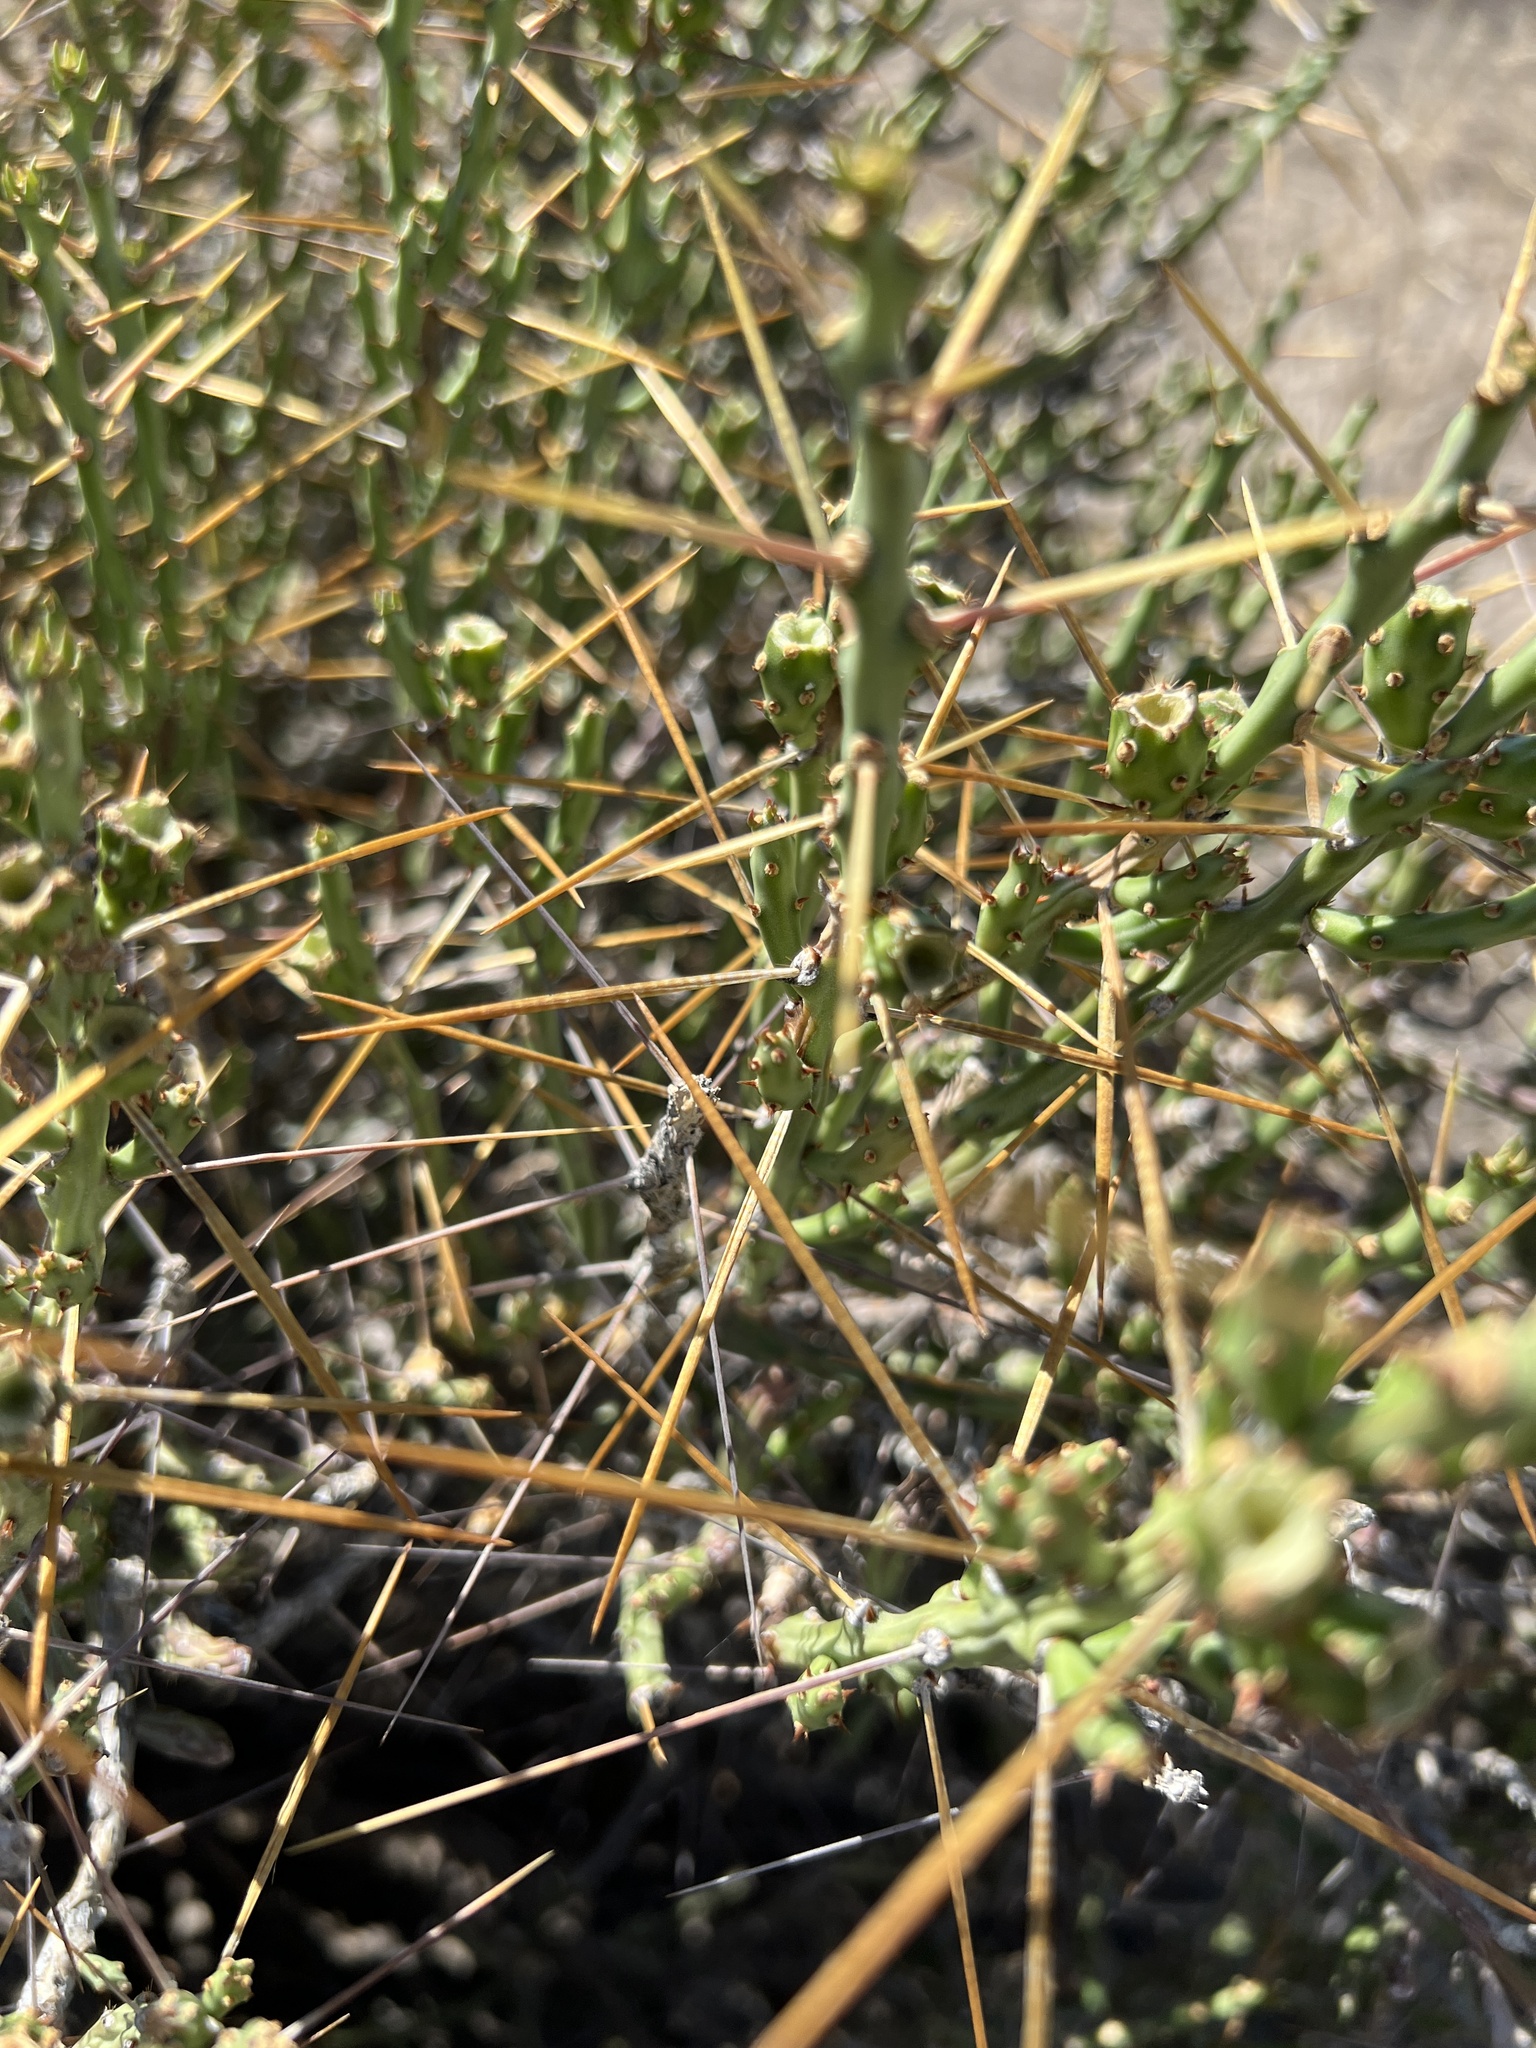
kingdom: Plantae
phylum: Tracheophyta
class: Magnoliopsida
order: Caryophyllales
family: Cactaceae
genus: Cylindropuntia
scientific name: Cylindropuntia leptocaulis
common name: Christmas cactus
